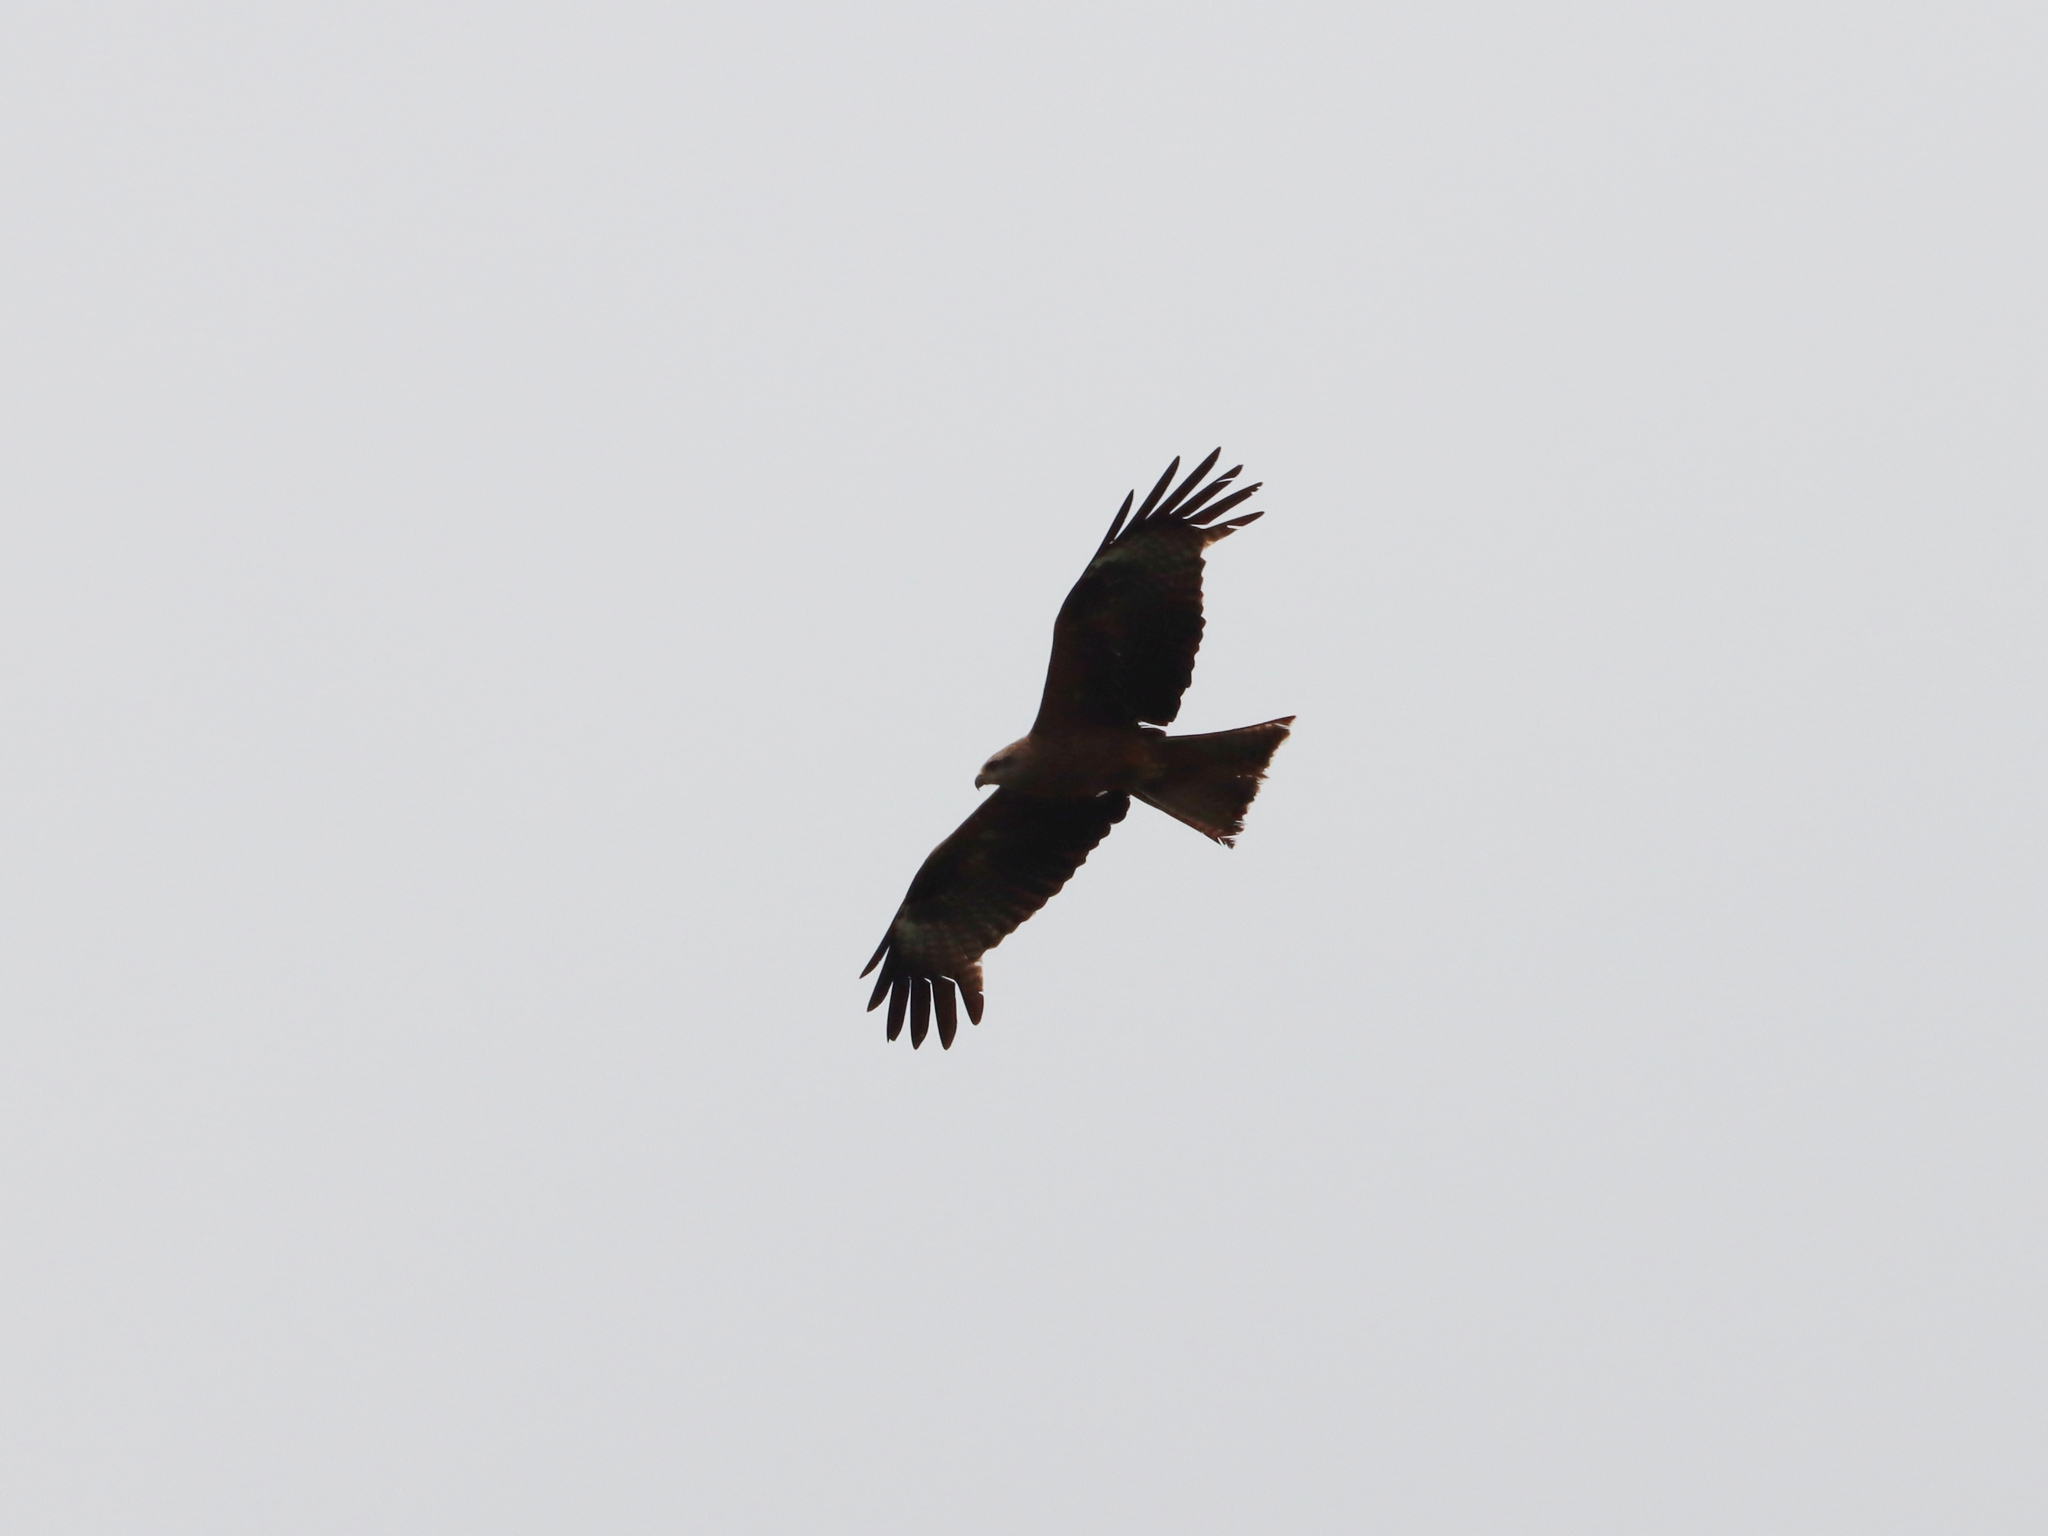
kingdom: Animalia
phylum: Chordata
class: Aves
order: Accipitriformes
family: Accipitridae
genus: Milvus
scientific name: Milvus migrans
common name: Black kite
